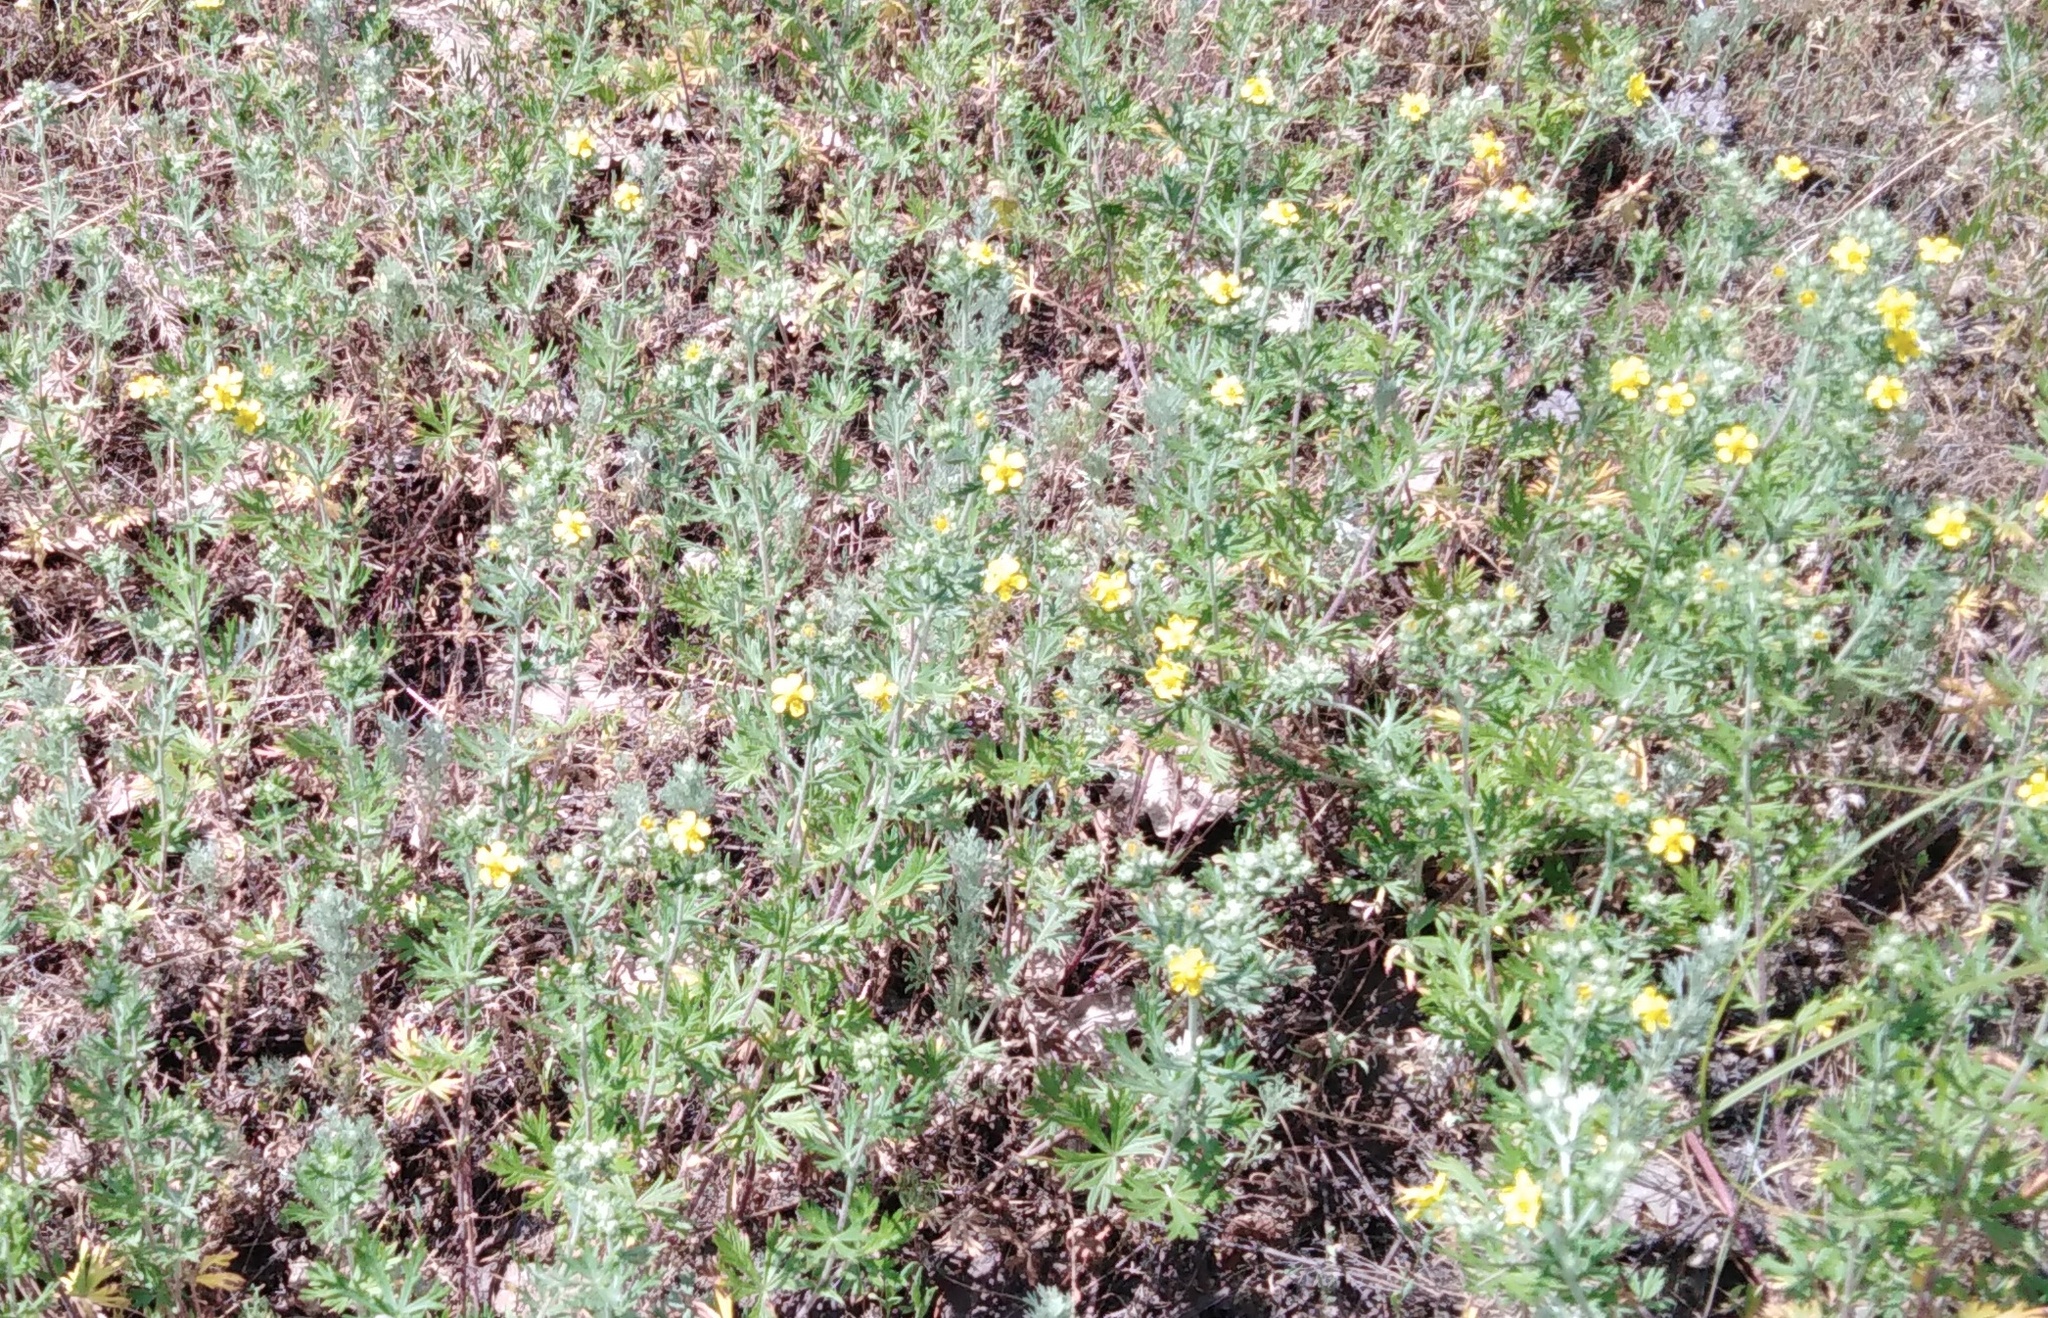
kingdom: Plantae
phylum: Tracheophyta
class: Magnoliopsida
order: Rosales
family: Rosaceae
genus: Potentilla
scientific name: Potentilla argentea
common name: Hoary cinquefoil
